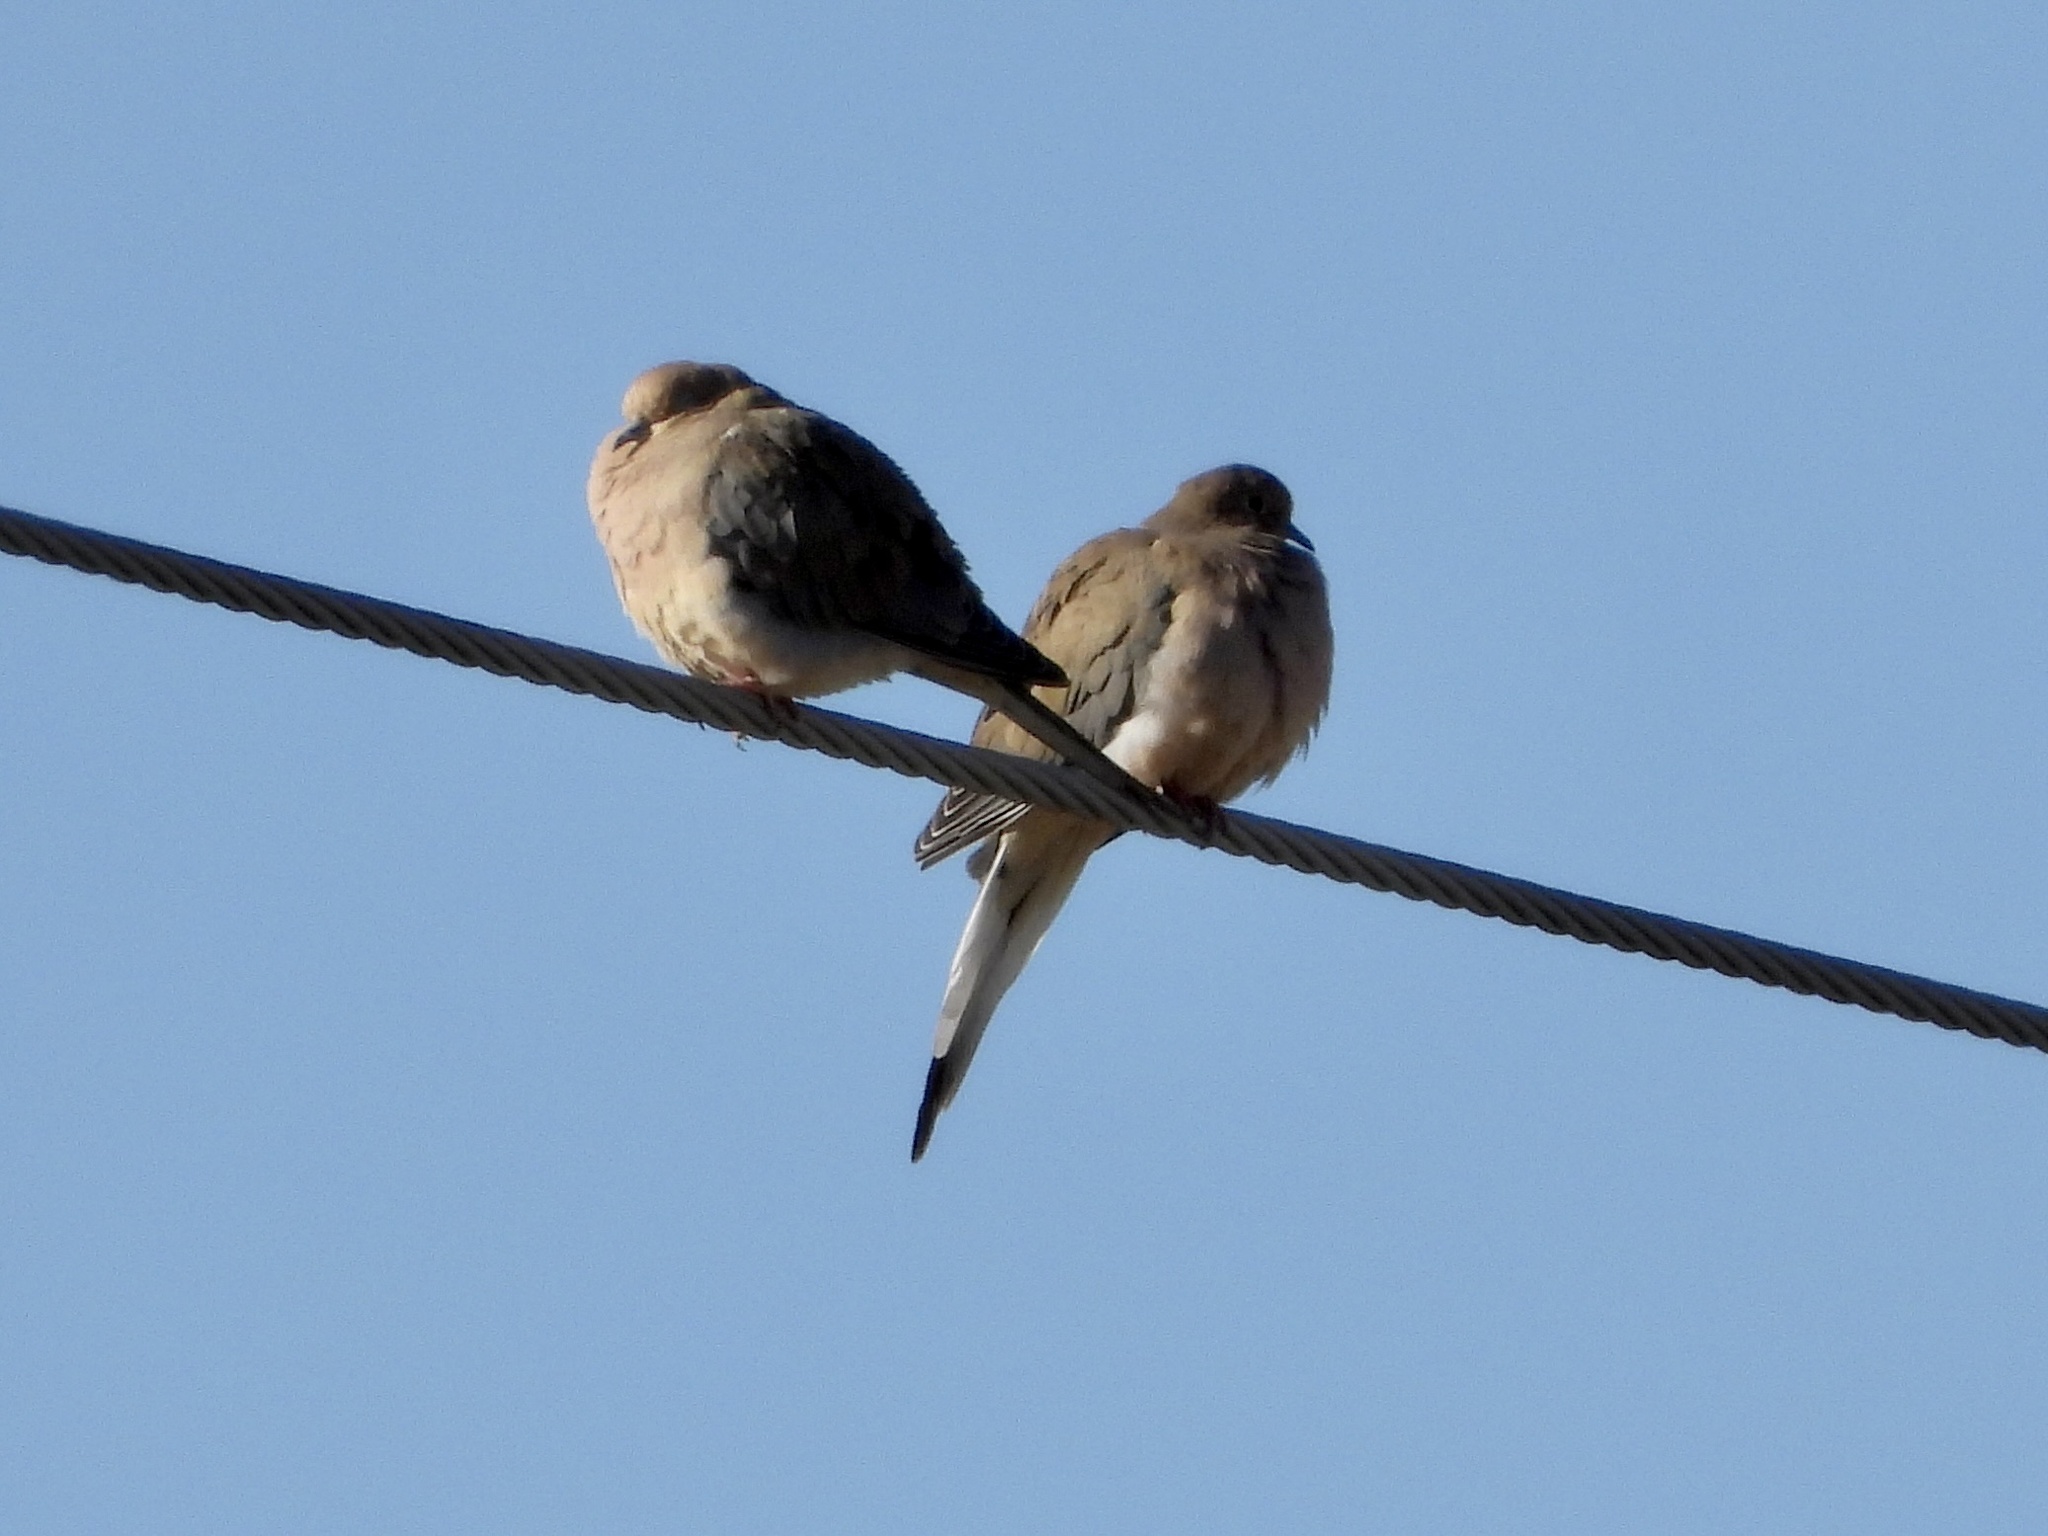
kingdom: Animalia
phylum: Chordata
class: Aves
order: Columbiformes
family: Columbidae
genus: Zenaida
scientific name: Zenaida macroura
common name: Mourning dove
